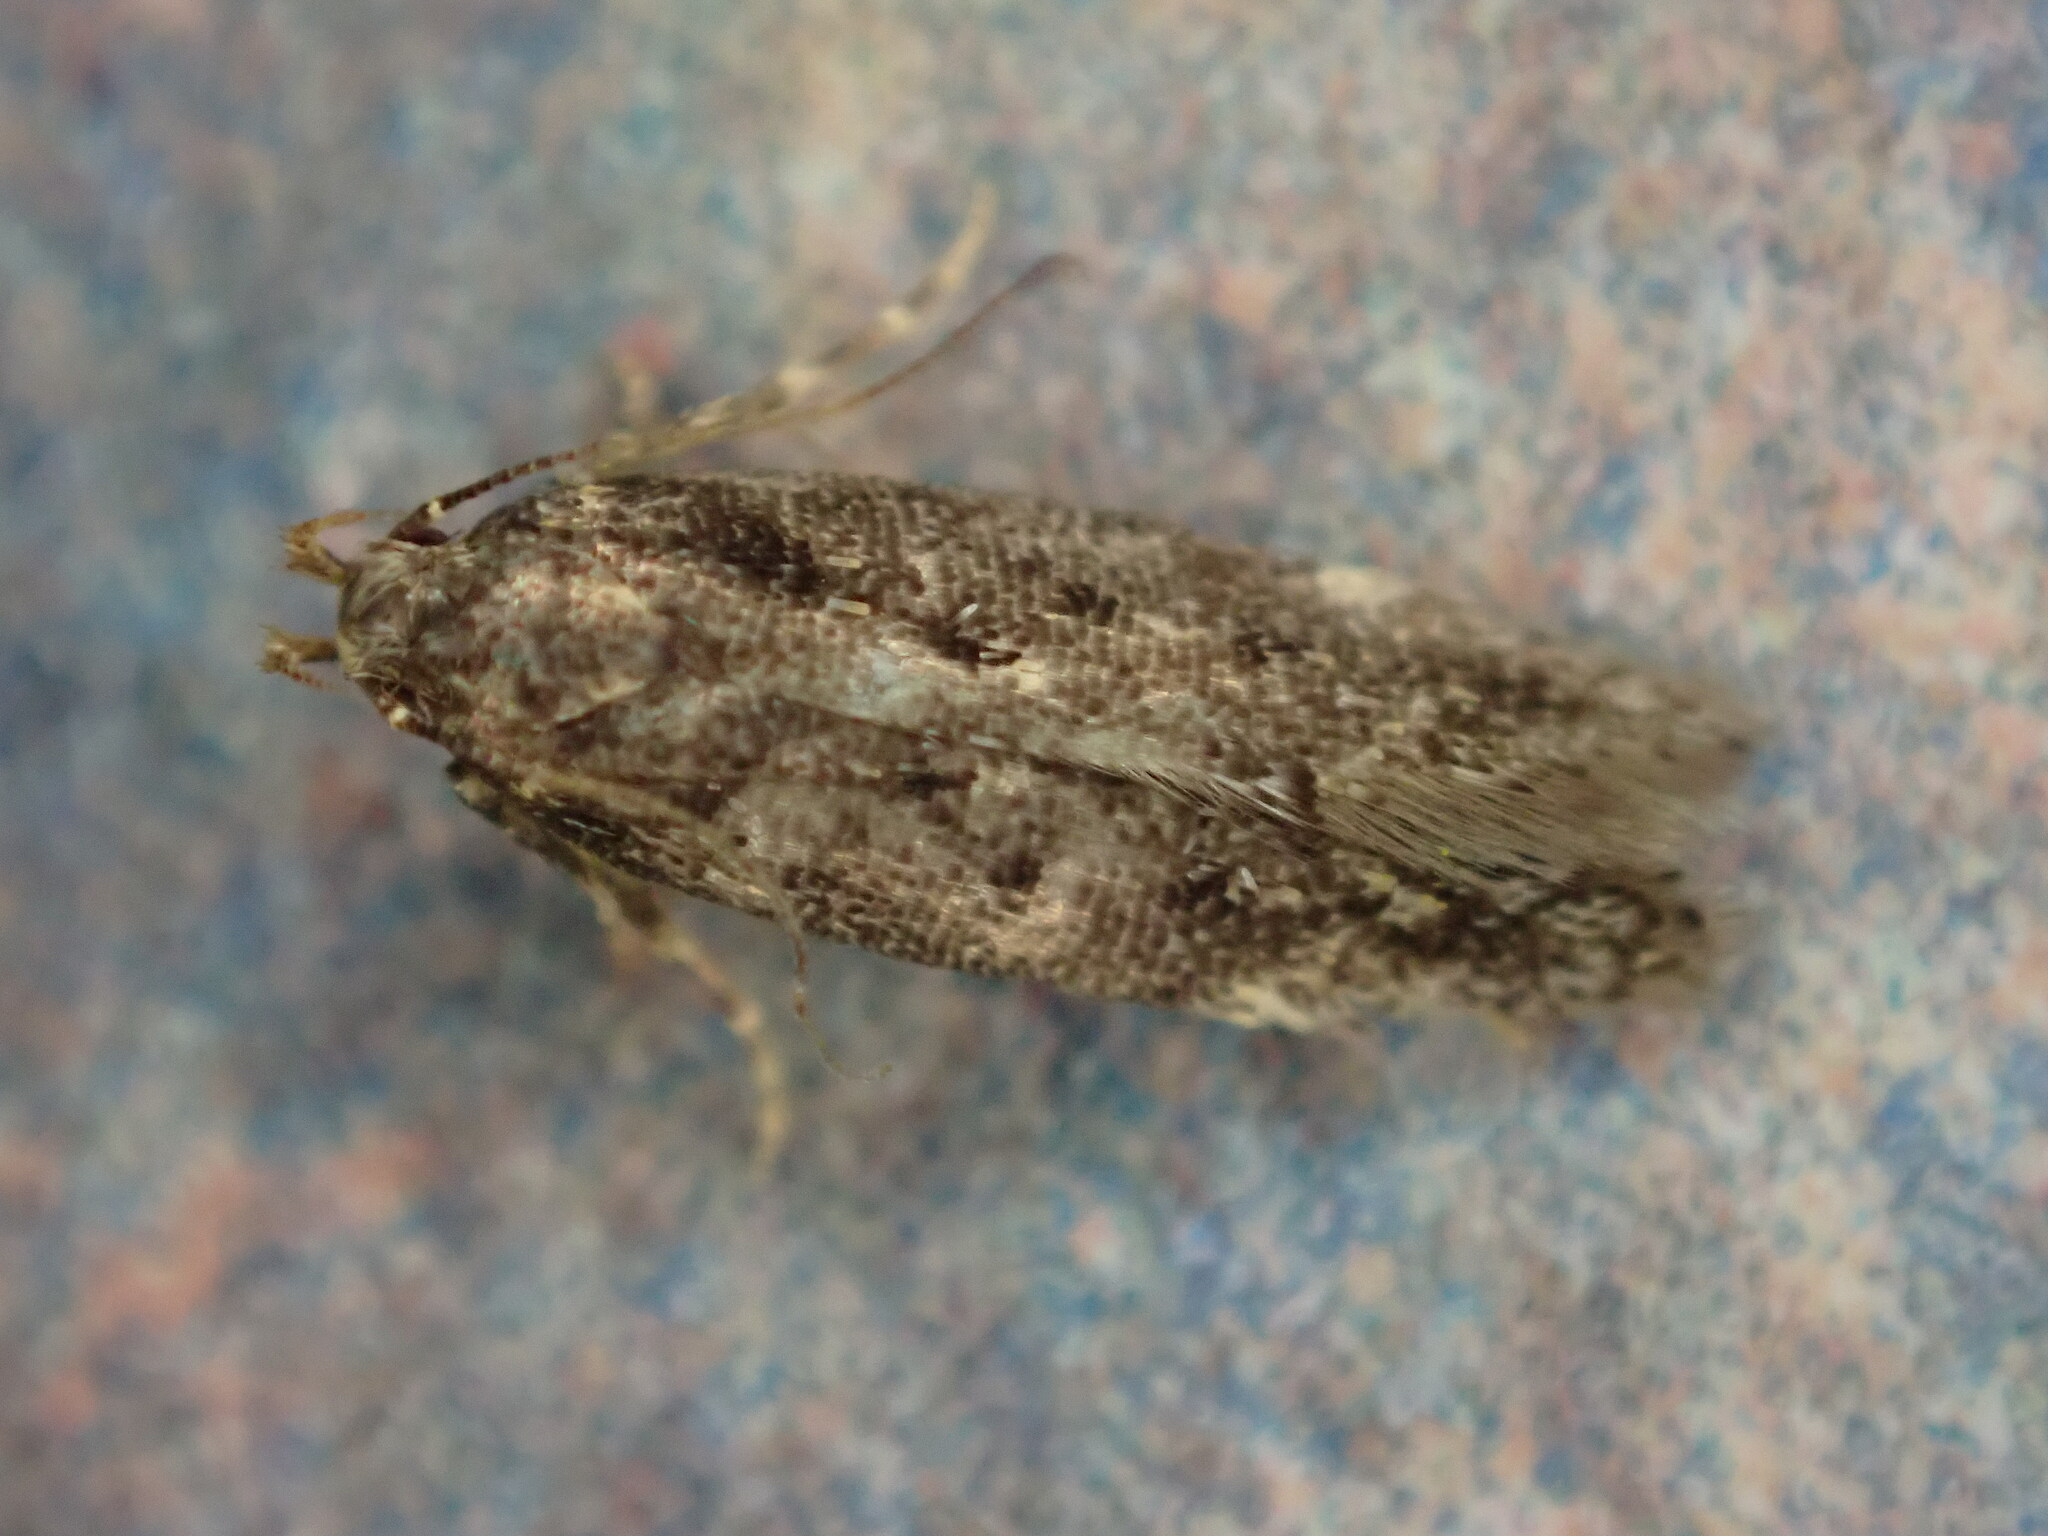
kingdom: Animalia
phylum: Arthropoda
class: Insecta
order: Lepidoptera
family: Gelechiidae
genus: Bryotropha
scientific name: Bryotropha affinis
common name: Dark groundling
